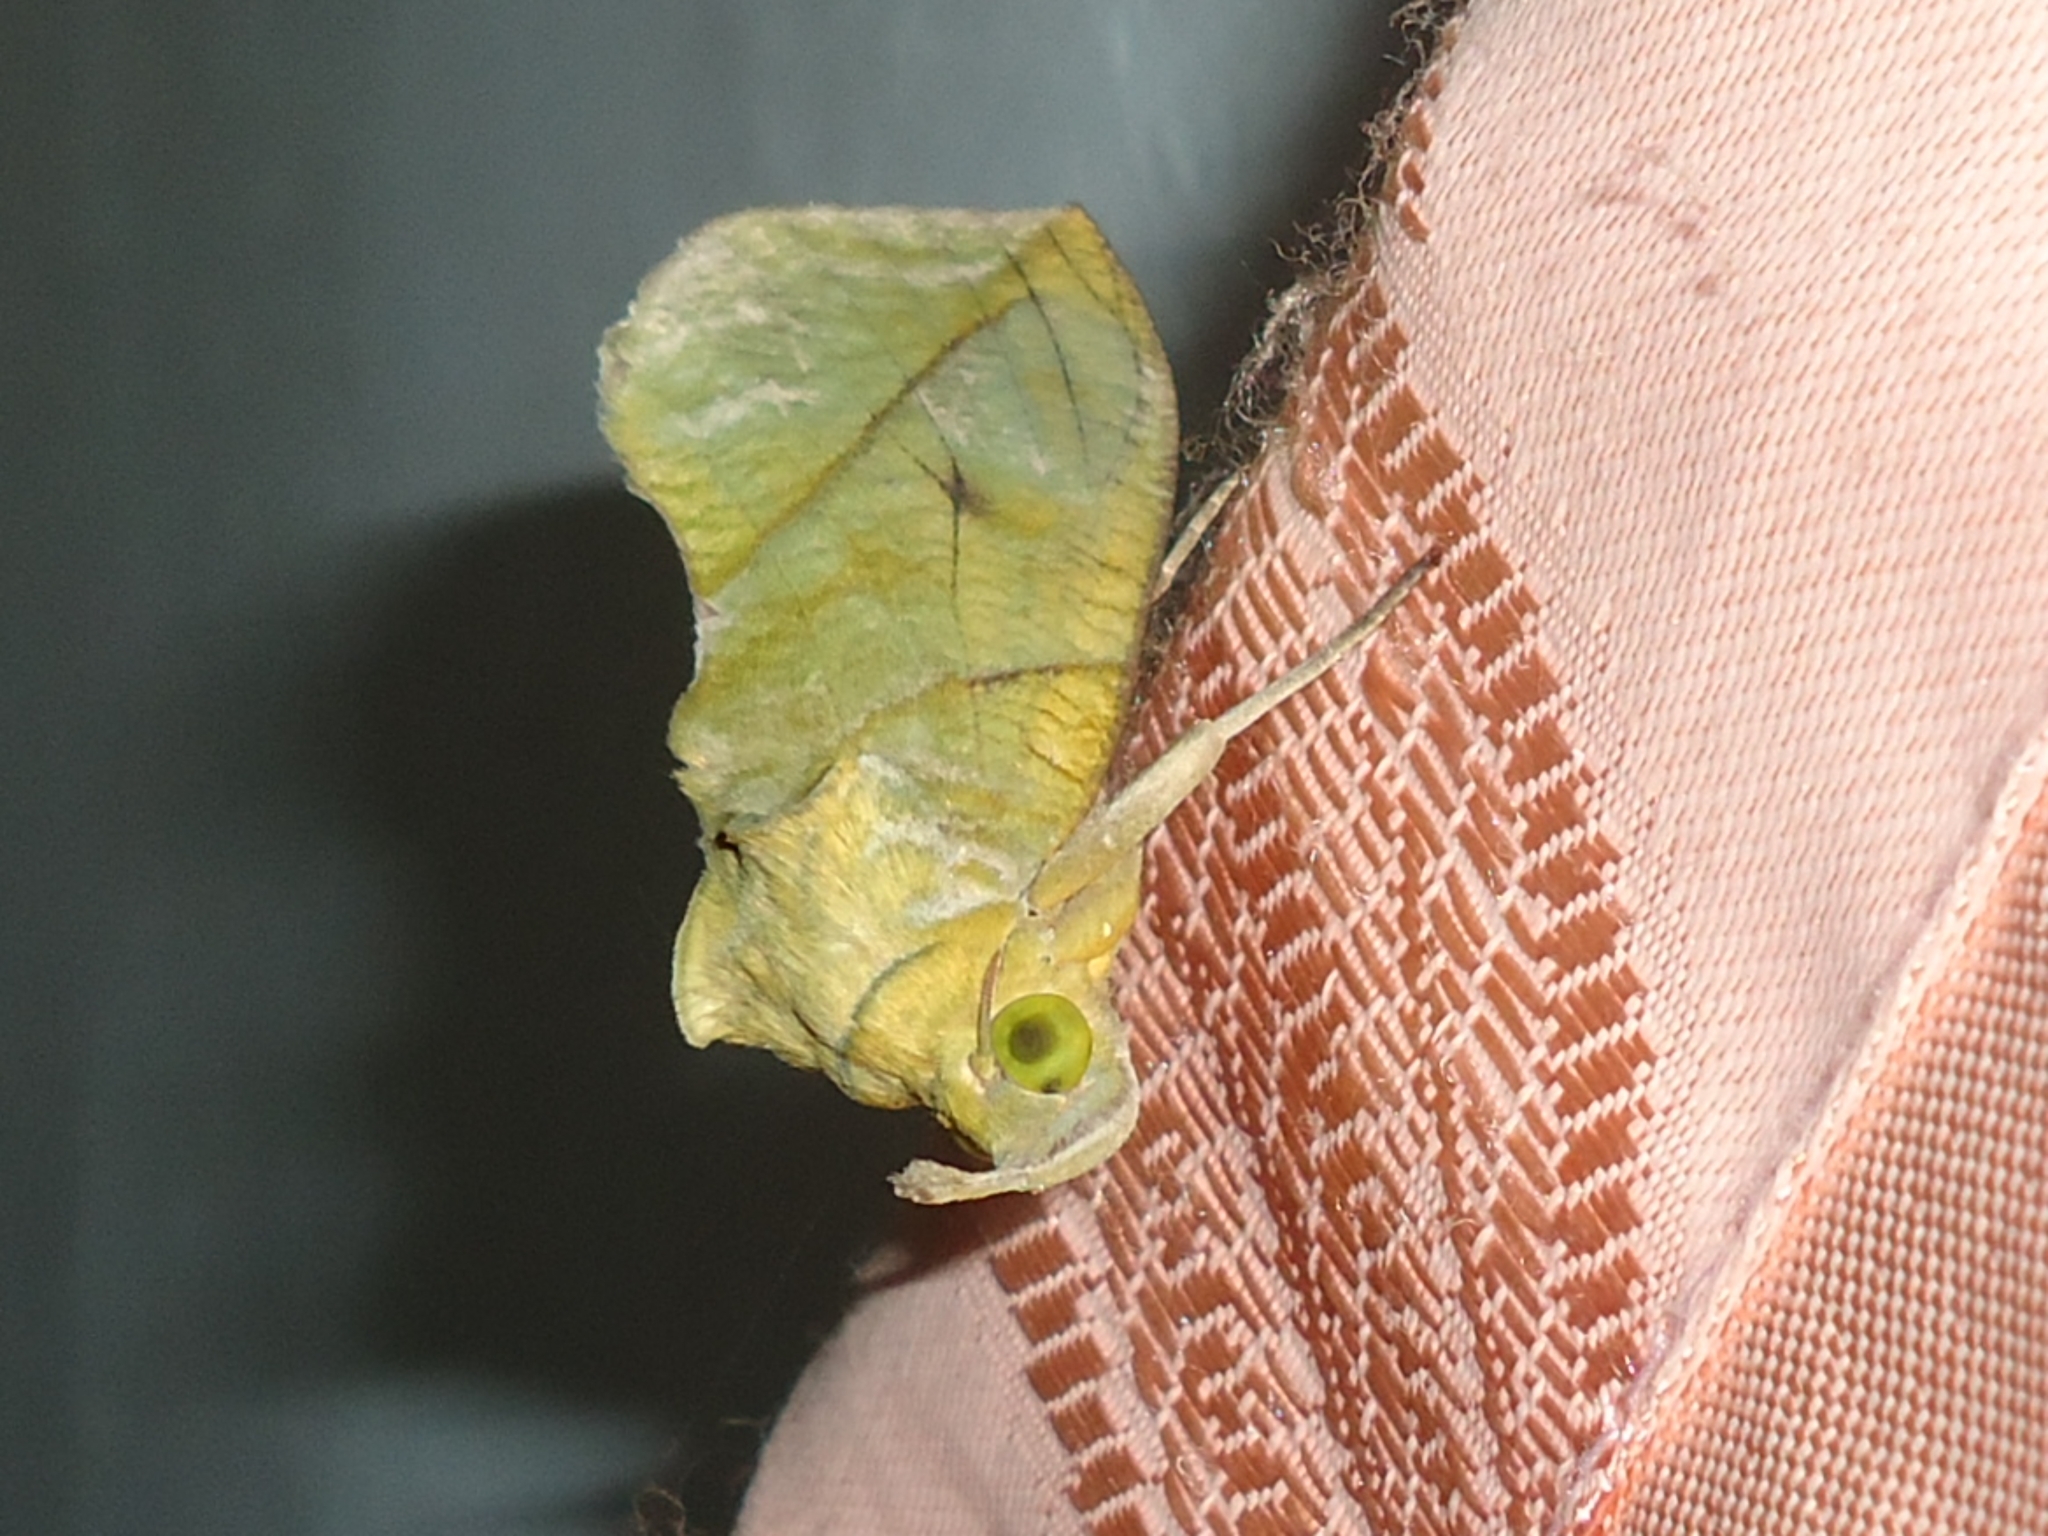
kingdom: Animalia
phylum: Arthropoda
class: Insecta
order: Lepidoptera
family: Erebidae
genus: Eudocima
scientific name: Eudocima hypermnestra
